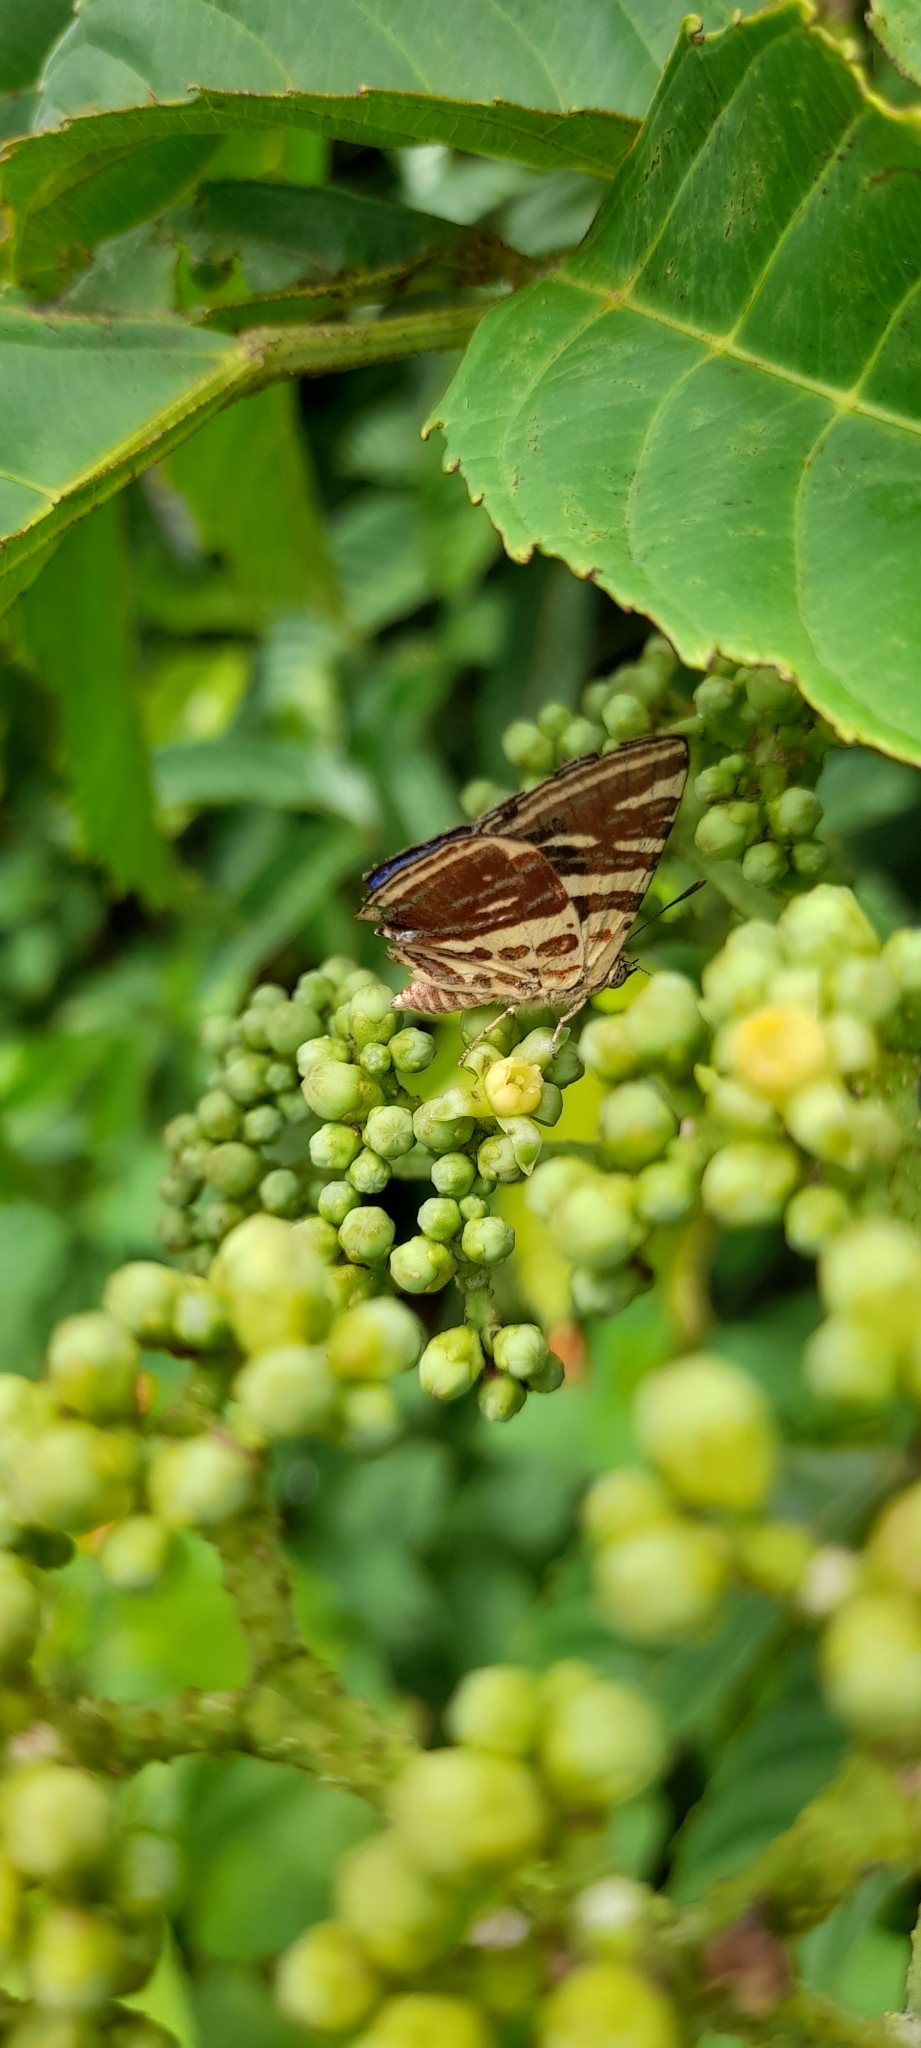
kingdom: Animalia
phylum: Arthropoda
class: Insecta
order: Lepidoptera
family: Lycaenidae
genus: Cigaritis
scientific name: Cigaritis lohita
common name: Long-banded silverline
